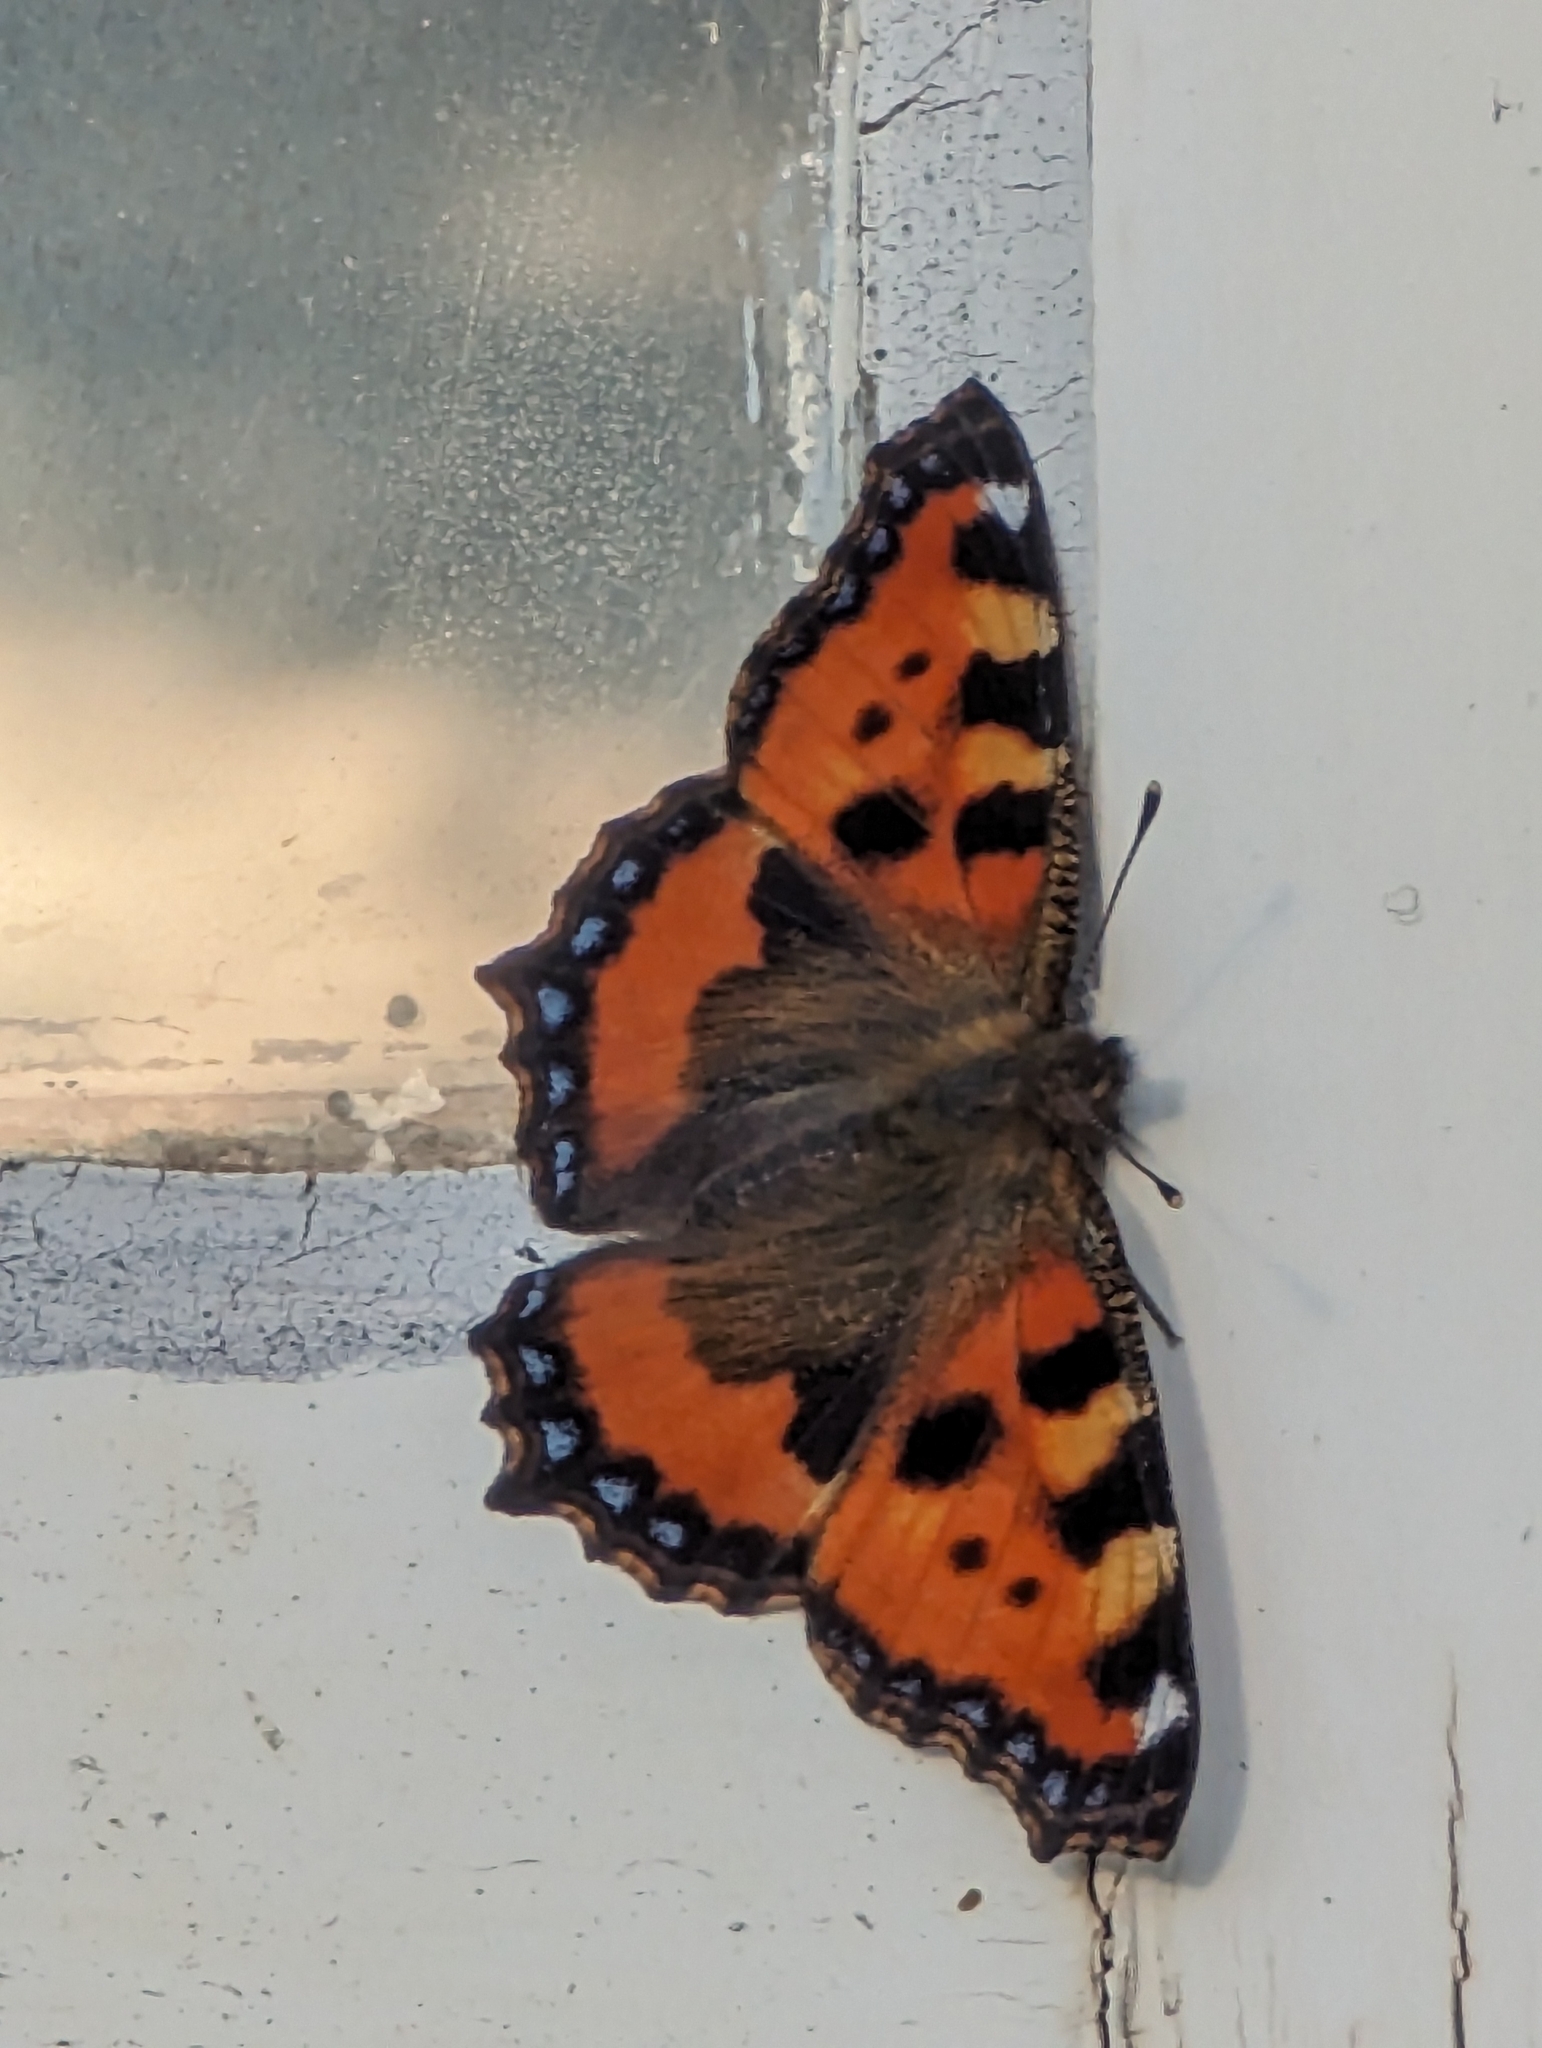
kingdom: Animalia
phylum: Arthropoda
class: Insecta
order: Lepidoptera
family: Nymphalidae
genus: Aglais
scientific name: Aglais urticae
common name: Small tortoiseshell
